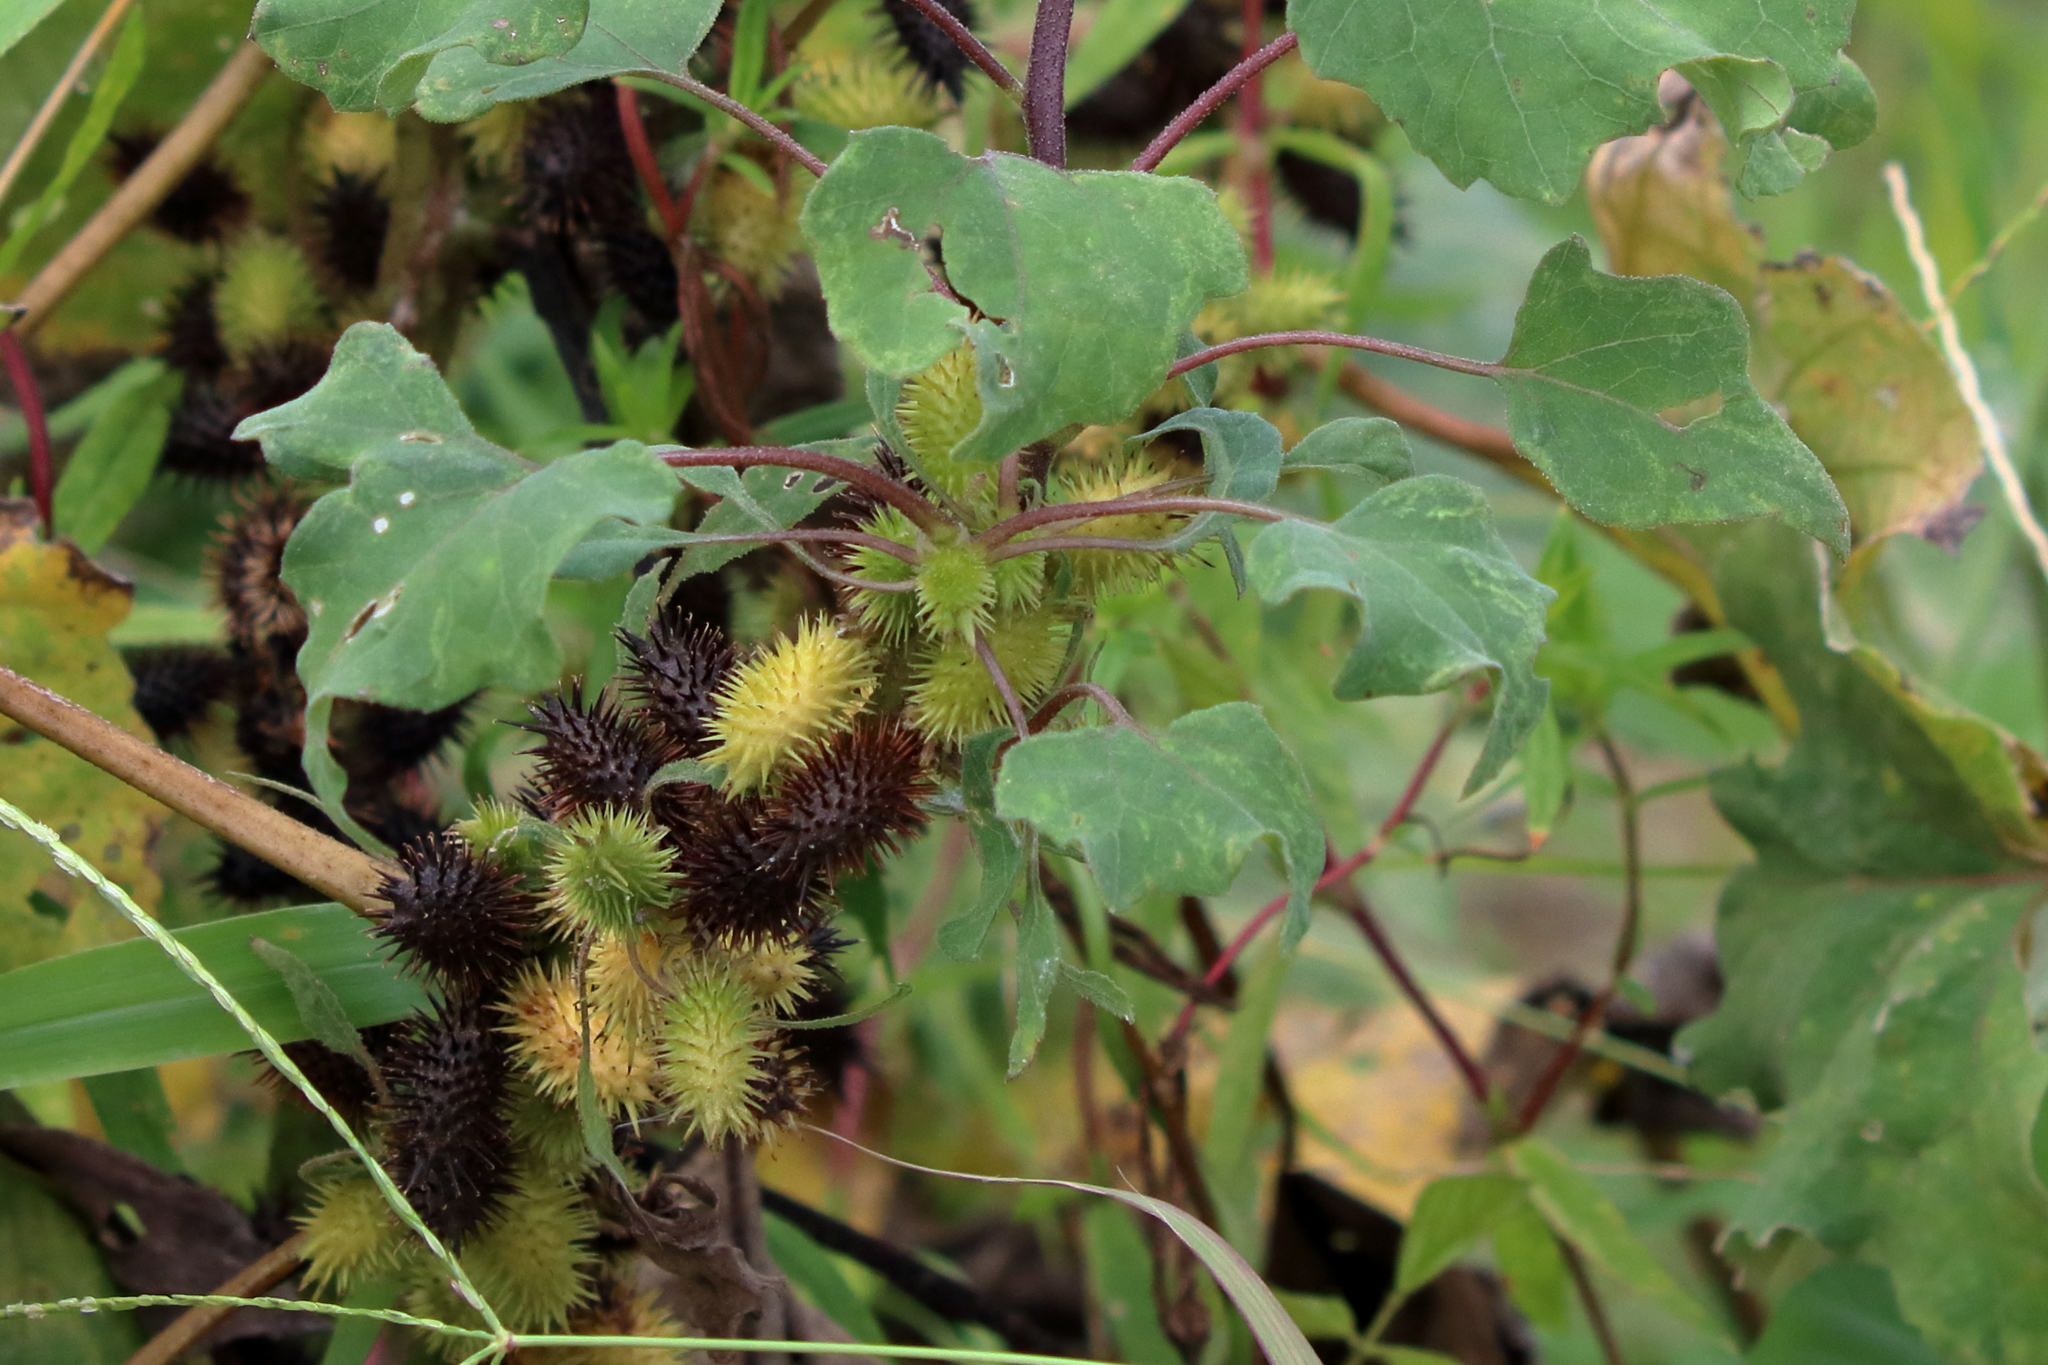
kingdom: Plantae
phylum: Tracheophyta
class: Magnoliopsida
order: Asterales
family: Asteraceae
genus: Xanthium
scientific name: Xanthium strumarium
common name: Rough cocklebur
